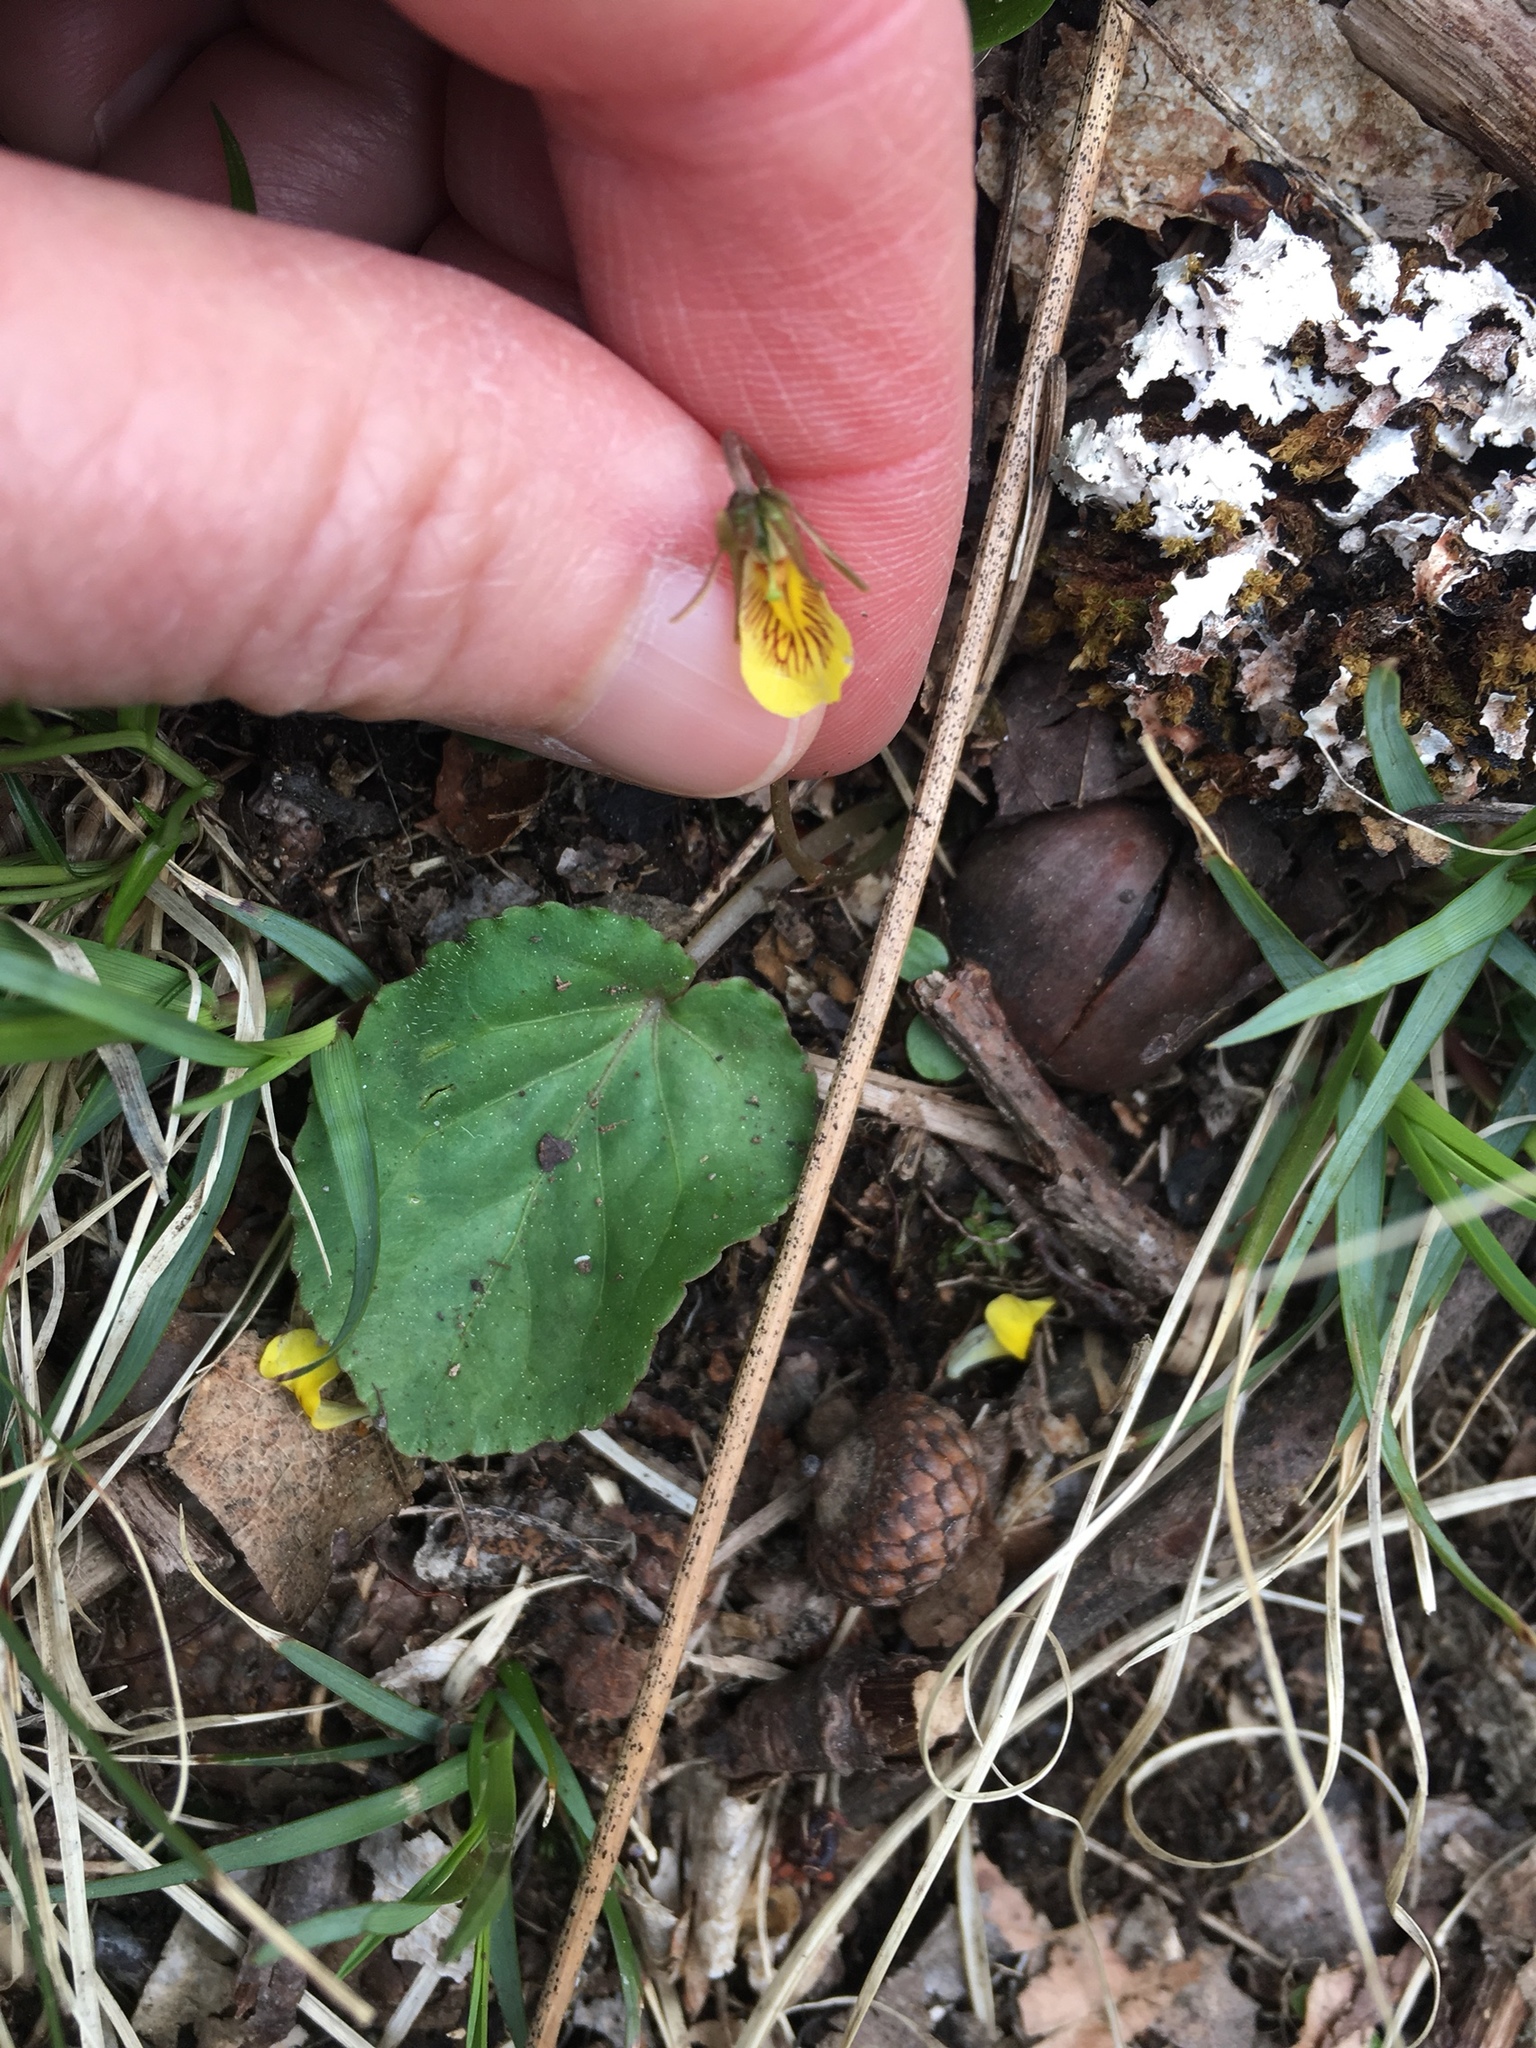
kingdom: Plantae
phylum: Tracheophyta
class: Magnoliopsida
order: Malpighiales
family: Violaceae
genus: Viola
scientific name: Viola rotundifolia
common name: Early yellow violet
